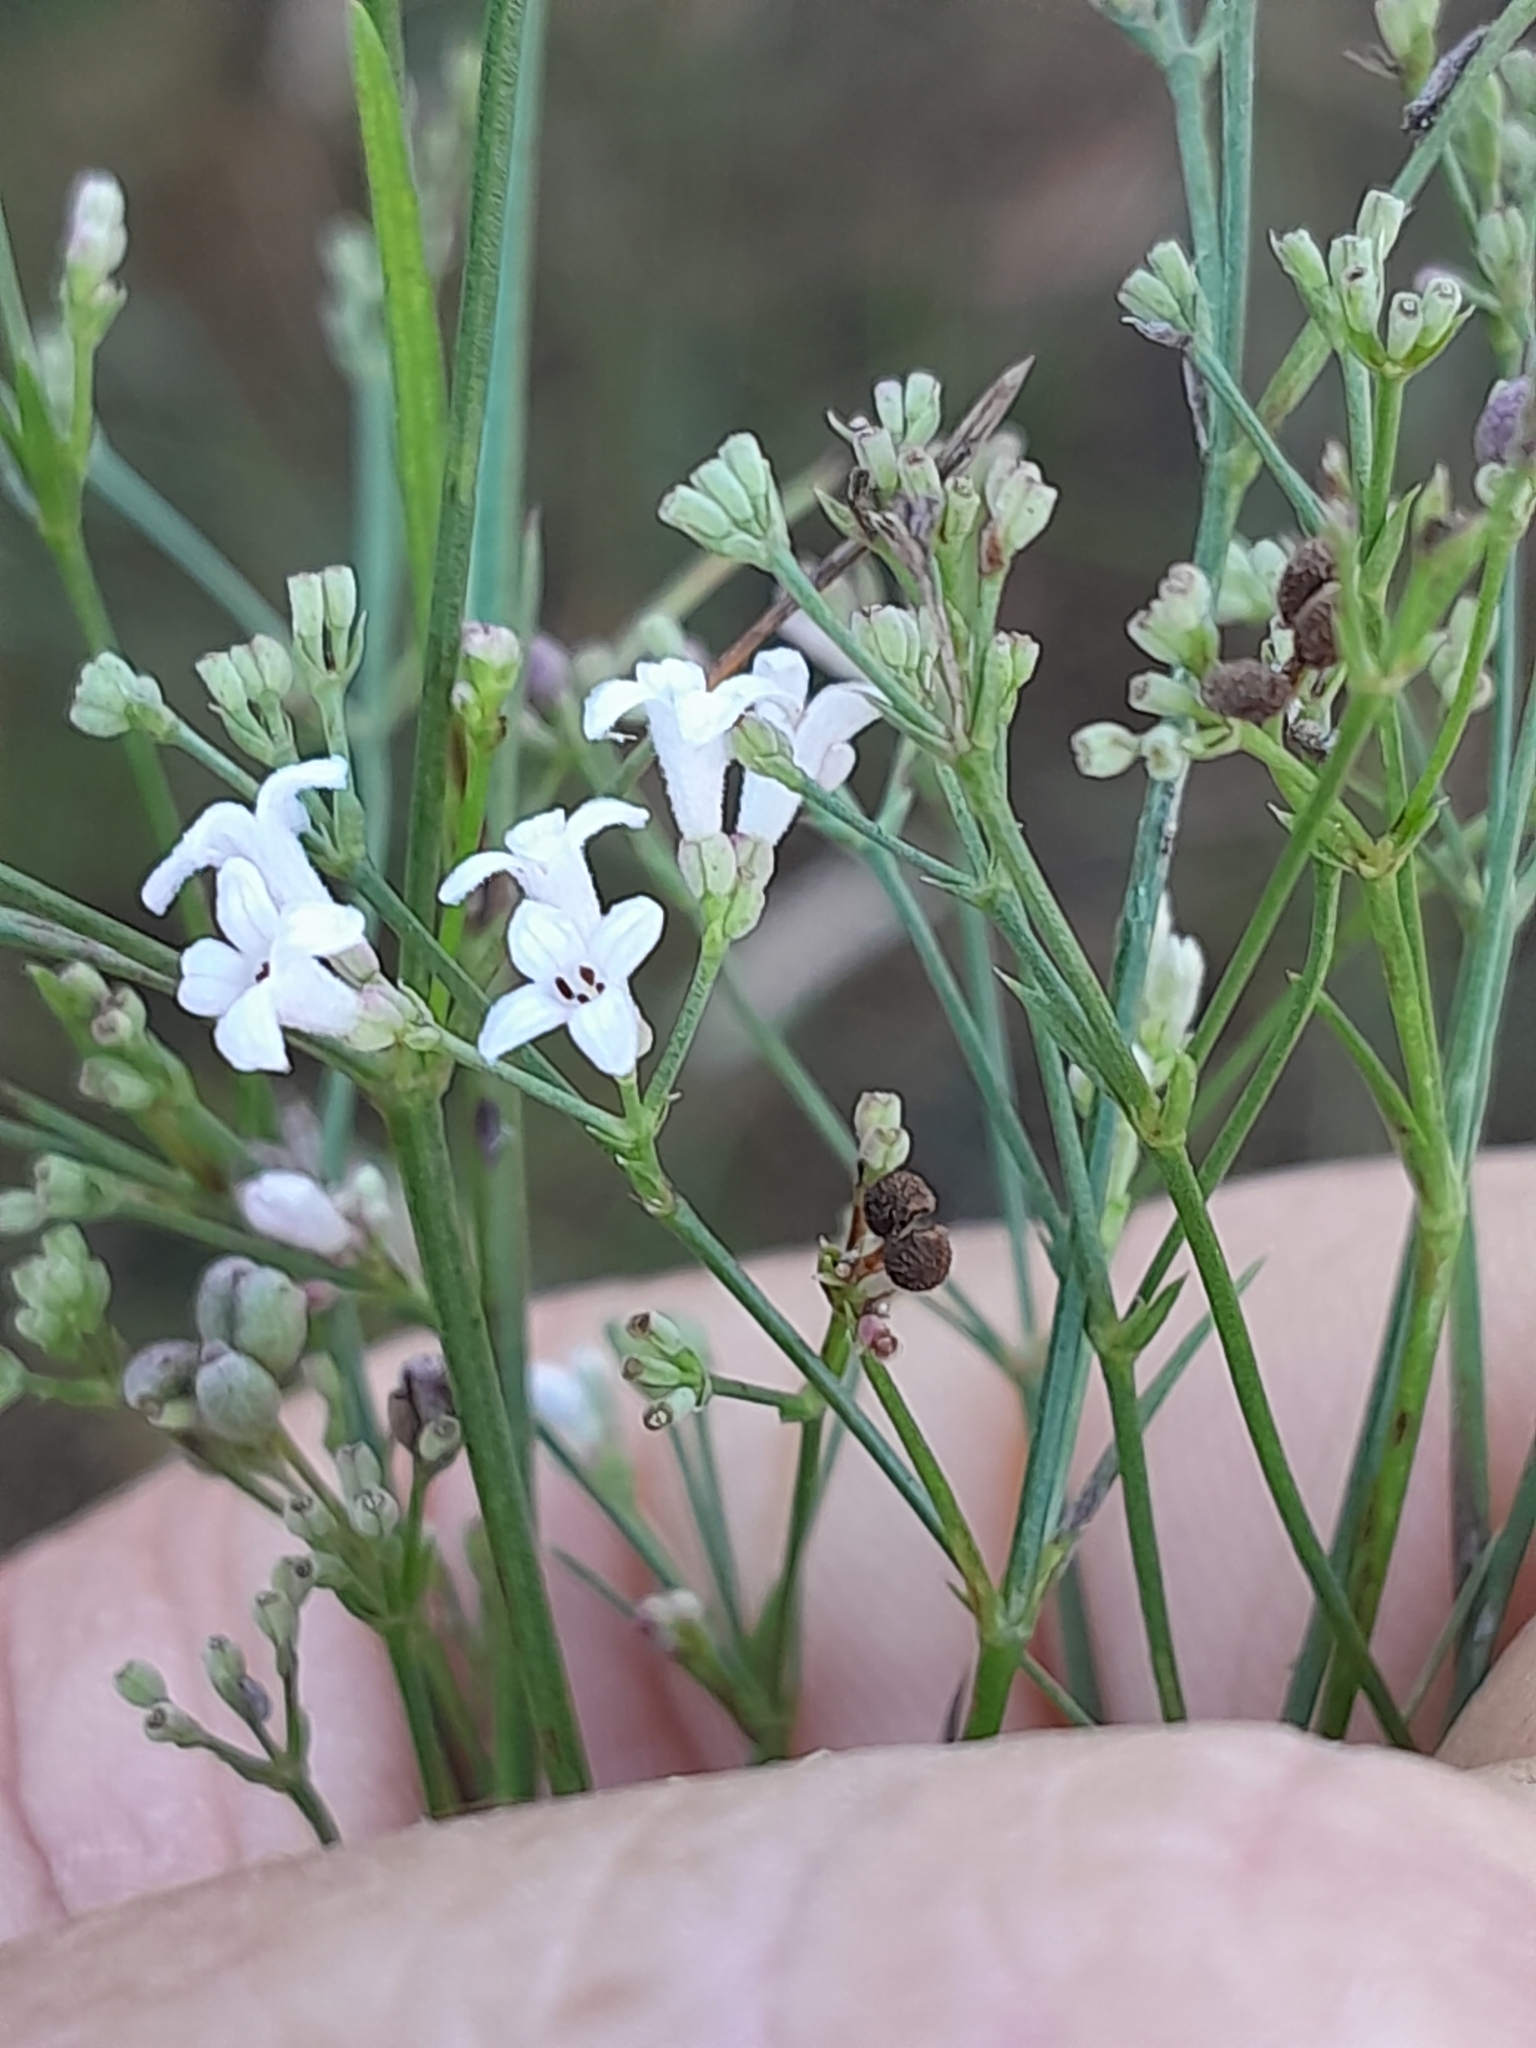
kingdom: Plantae
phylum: Tracheophyta
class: Magnoliopsida
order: Gentianales
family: Rubiaceae
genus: Cynanchica
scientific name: Cynanchica pyrenaica
